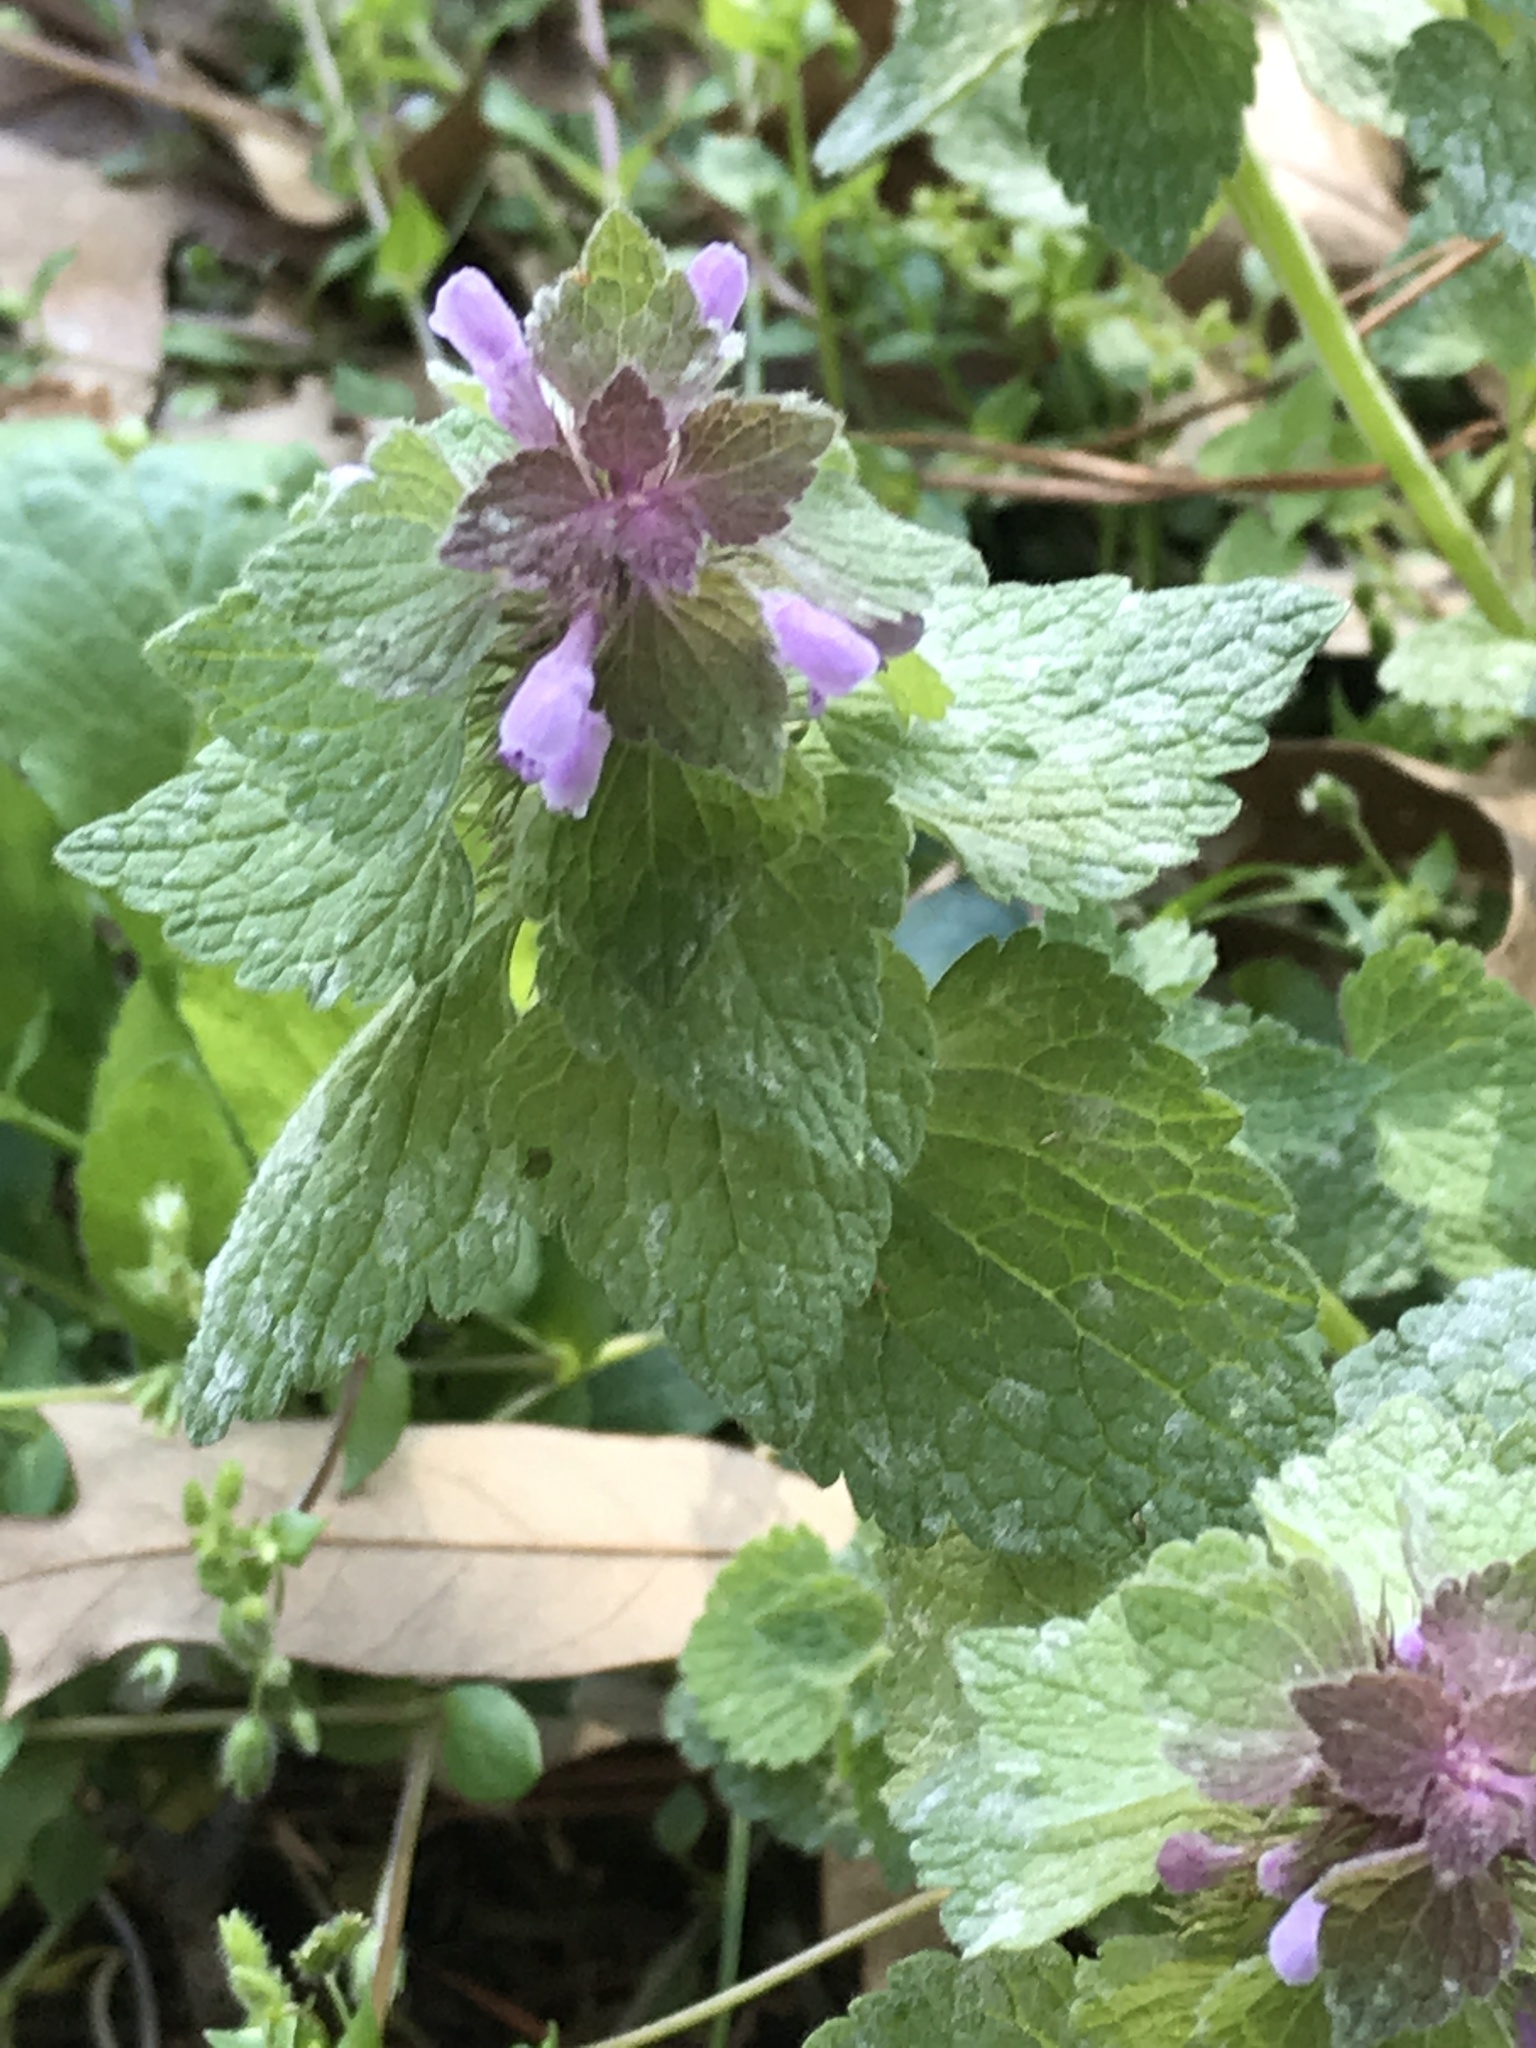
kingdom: Plantae
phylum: Tracheophyta
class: Magnoliopsida
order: Lamiales
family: Lamiaceae
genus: Lamium
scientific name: Lamium purpureum
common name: Red dead-nettle
